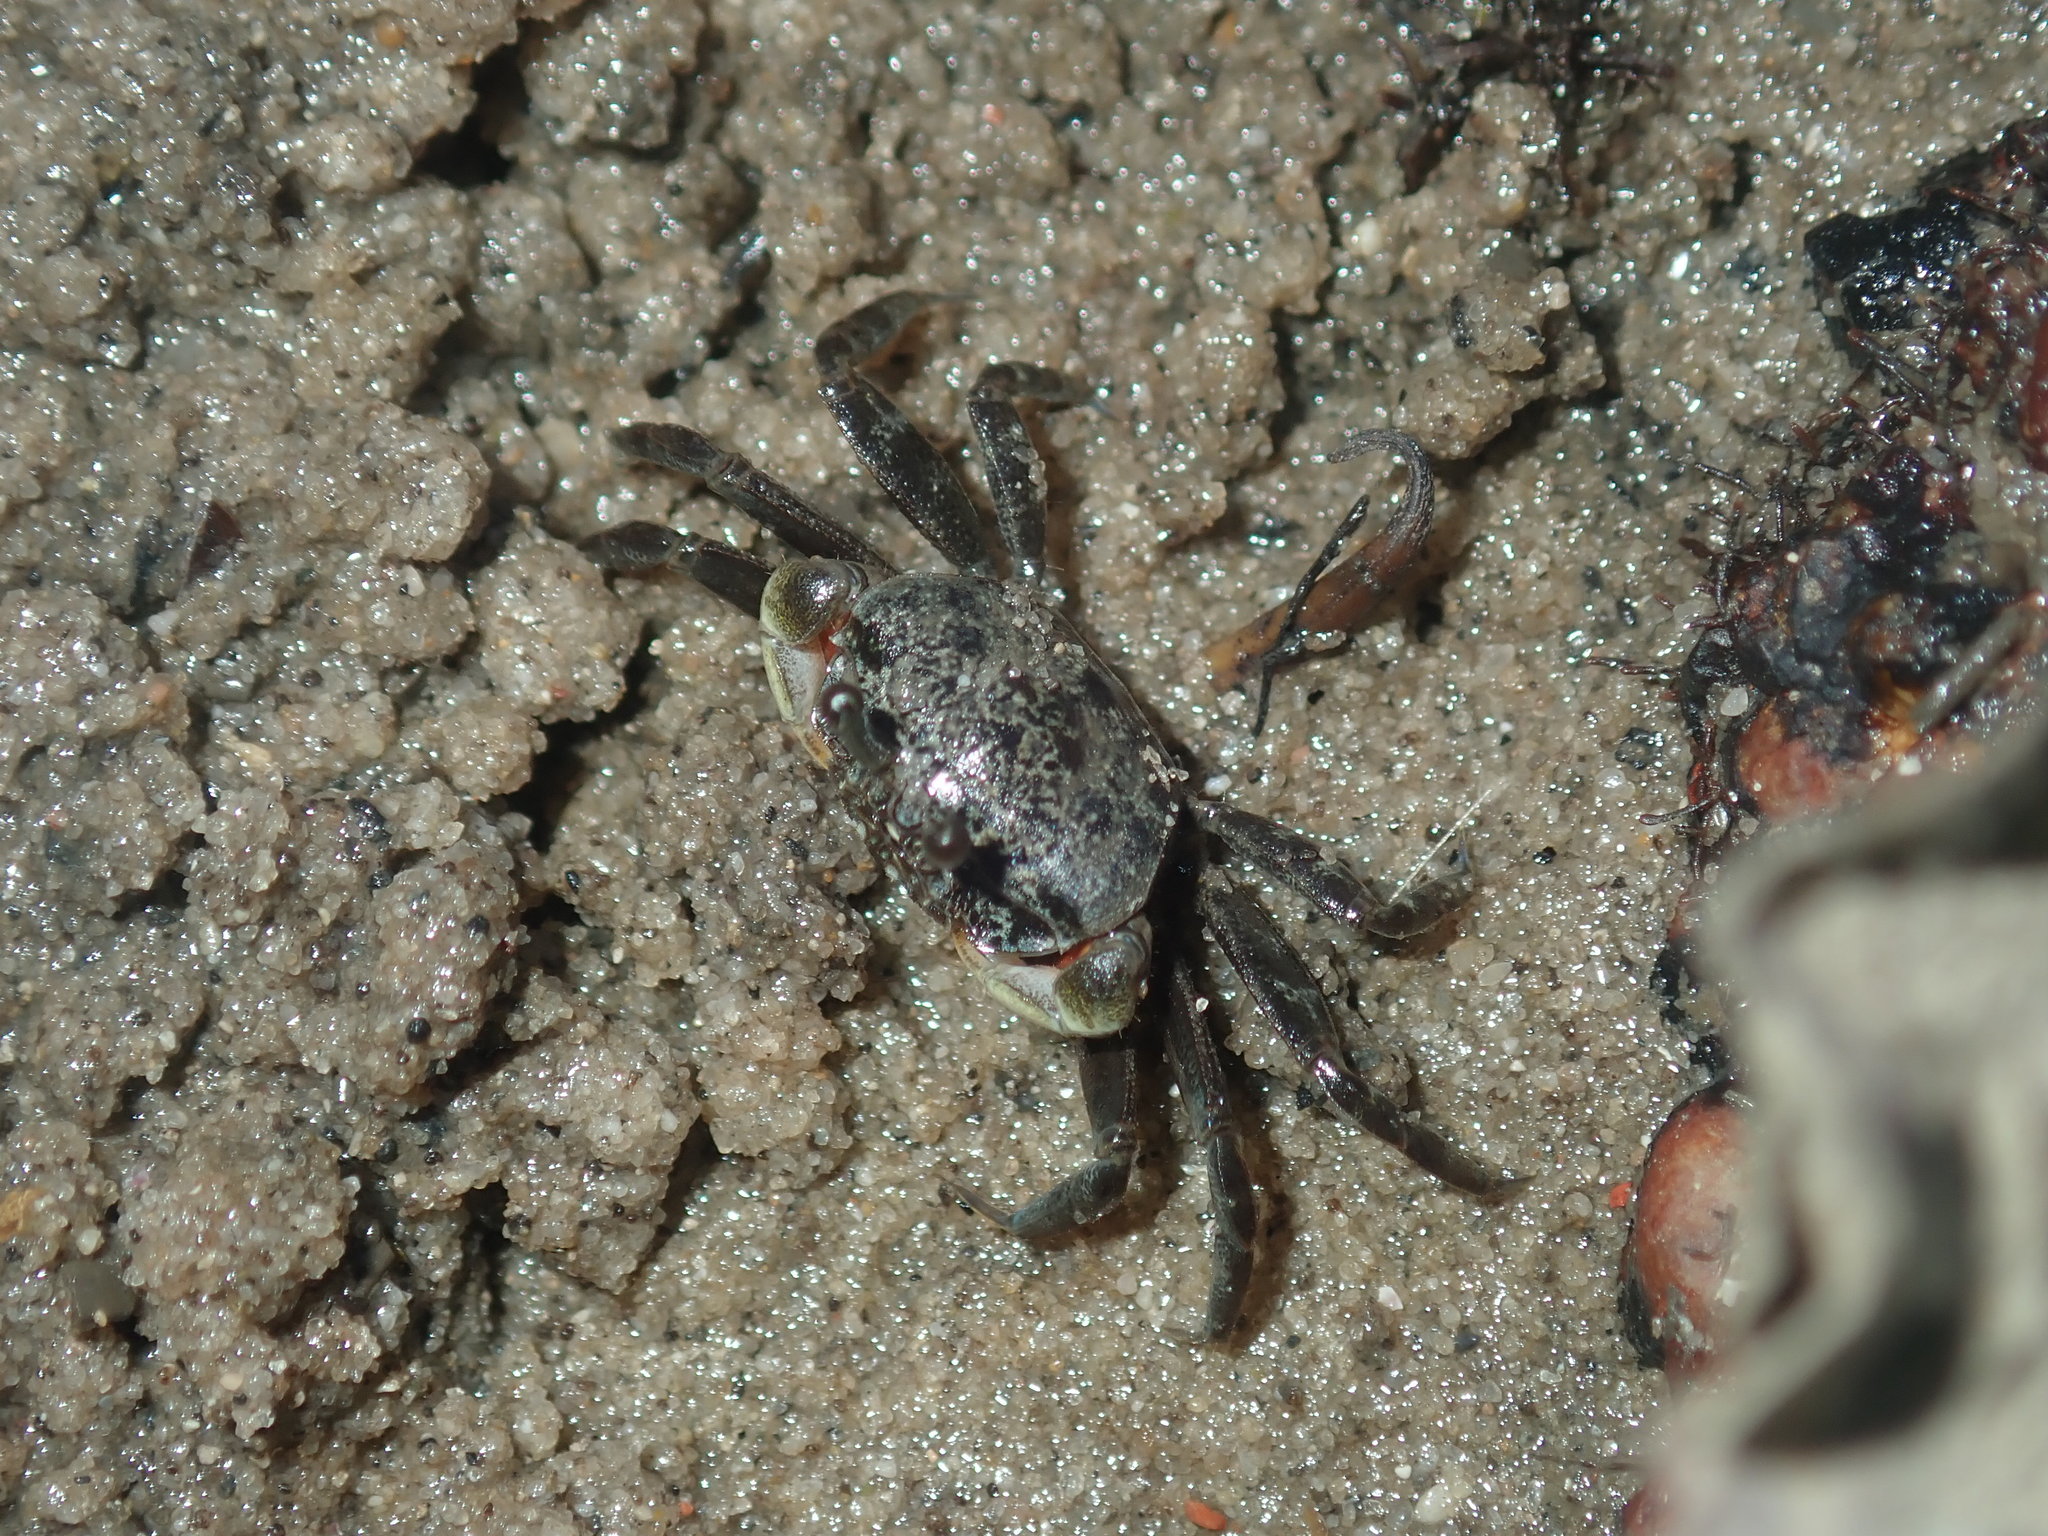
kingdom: Animalia
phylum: Arthropoda
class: Malacostraca
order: Decapoda
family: Heloeciidae
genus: Heloecius
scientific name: Heloecius cordiformis
